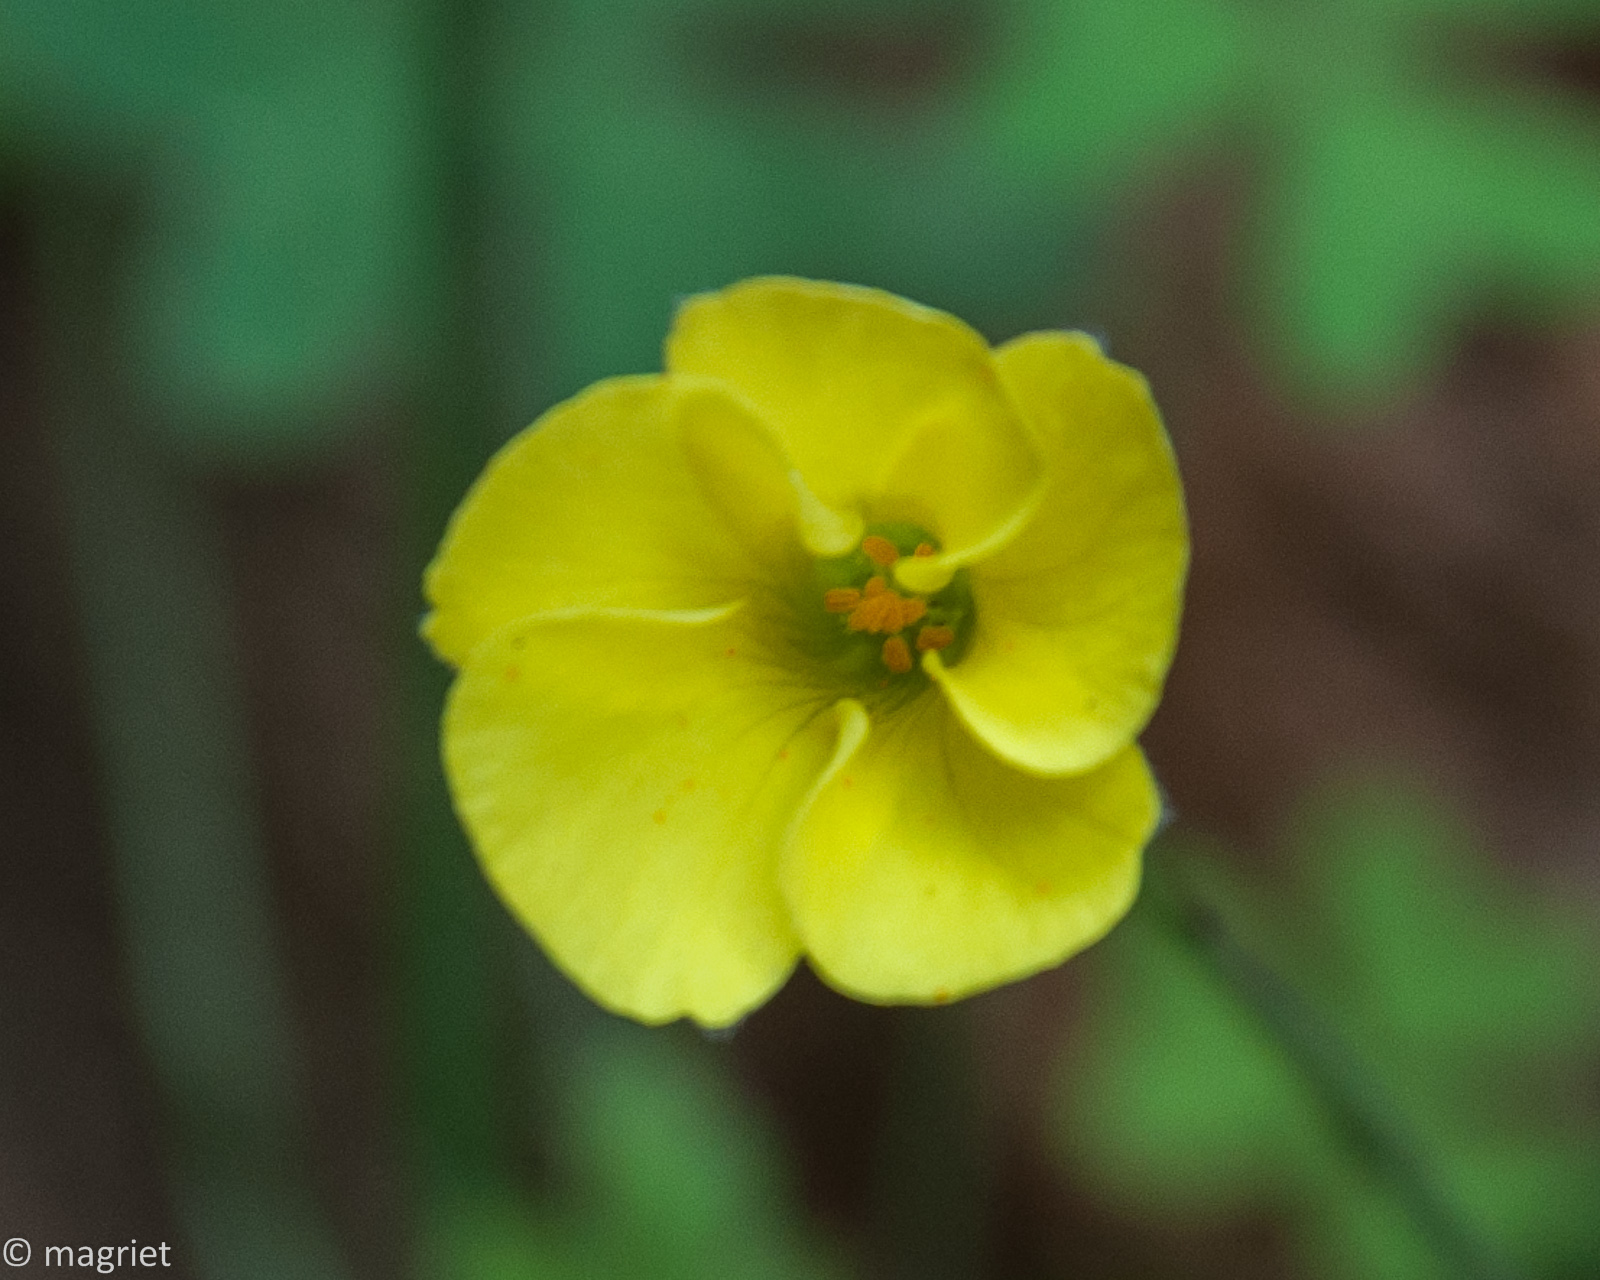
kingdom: Plantae
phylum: Tracheophyta
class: Magnoliopsida
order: Oxalidales
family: Oxalidaceae
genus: Oxalis
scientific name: Oxalis pes-caprae
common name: Bermuda-buttercup
